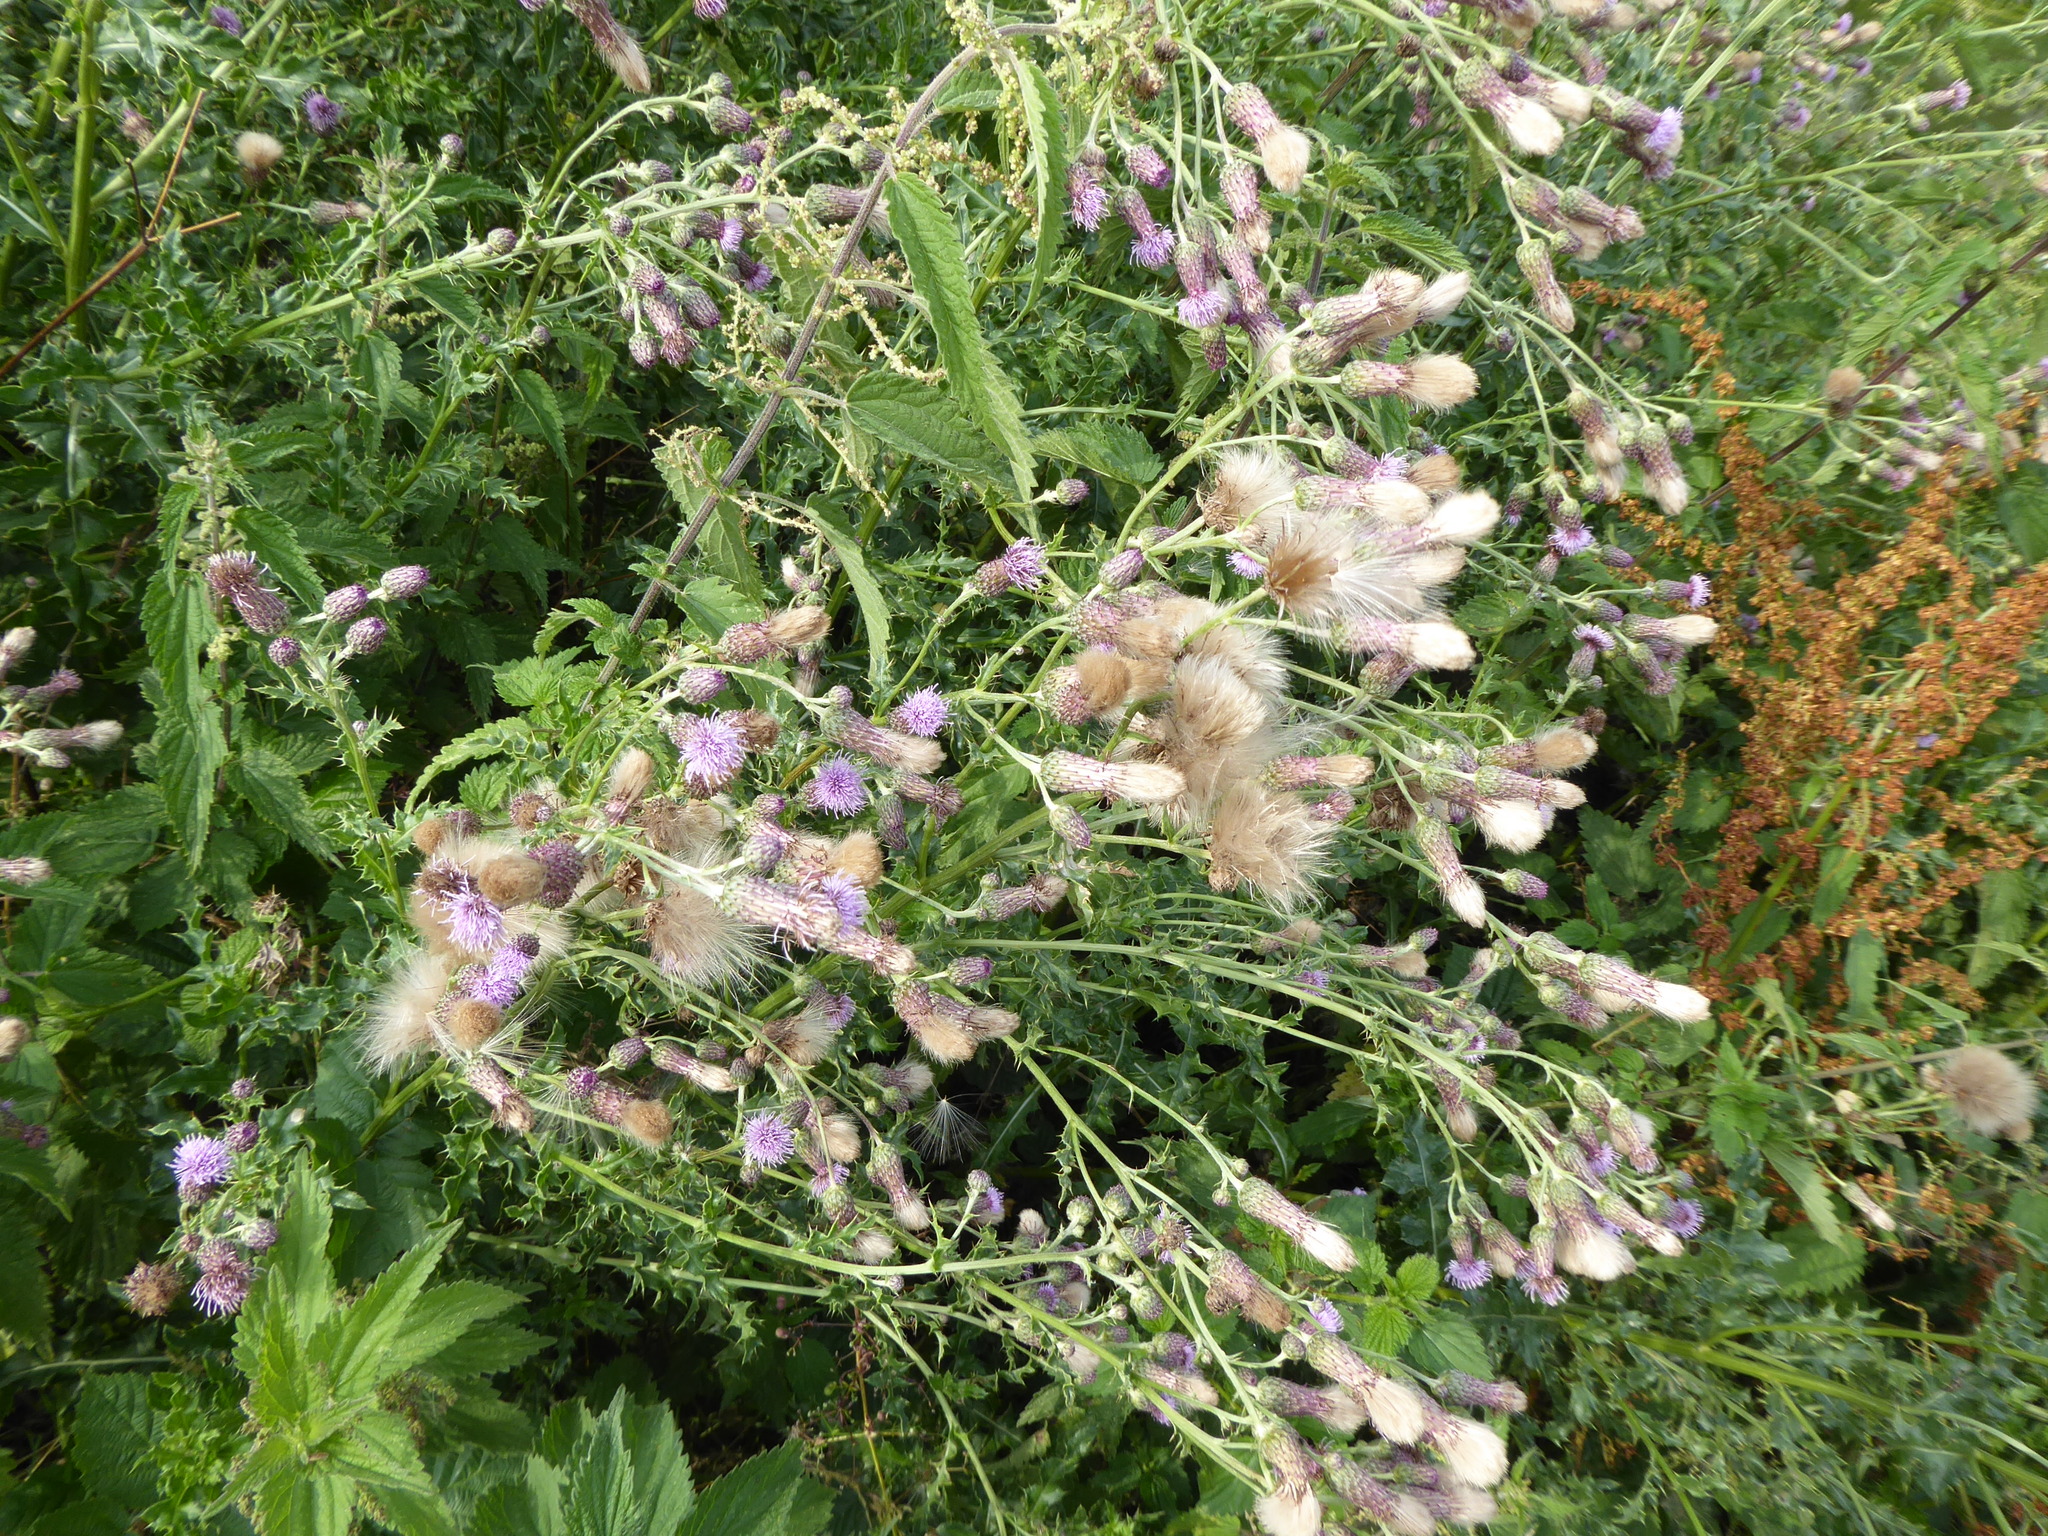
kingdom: Plantae
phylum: Tracheophyta
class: Magnoliopsida
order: Asterales
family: Asteraceae
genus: Cirsium
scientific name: Cirsium arvense
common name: Creeping thistle
